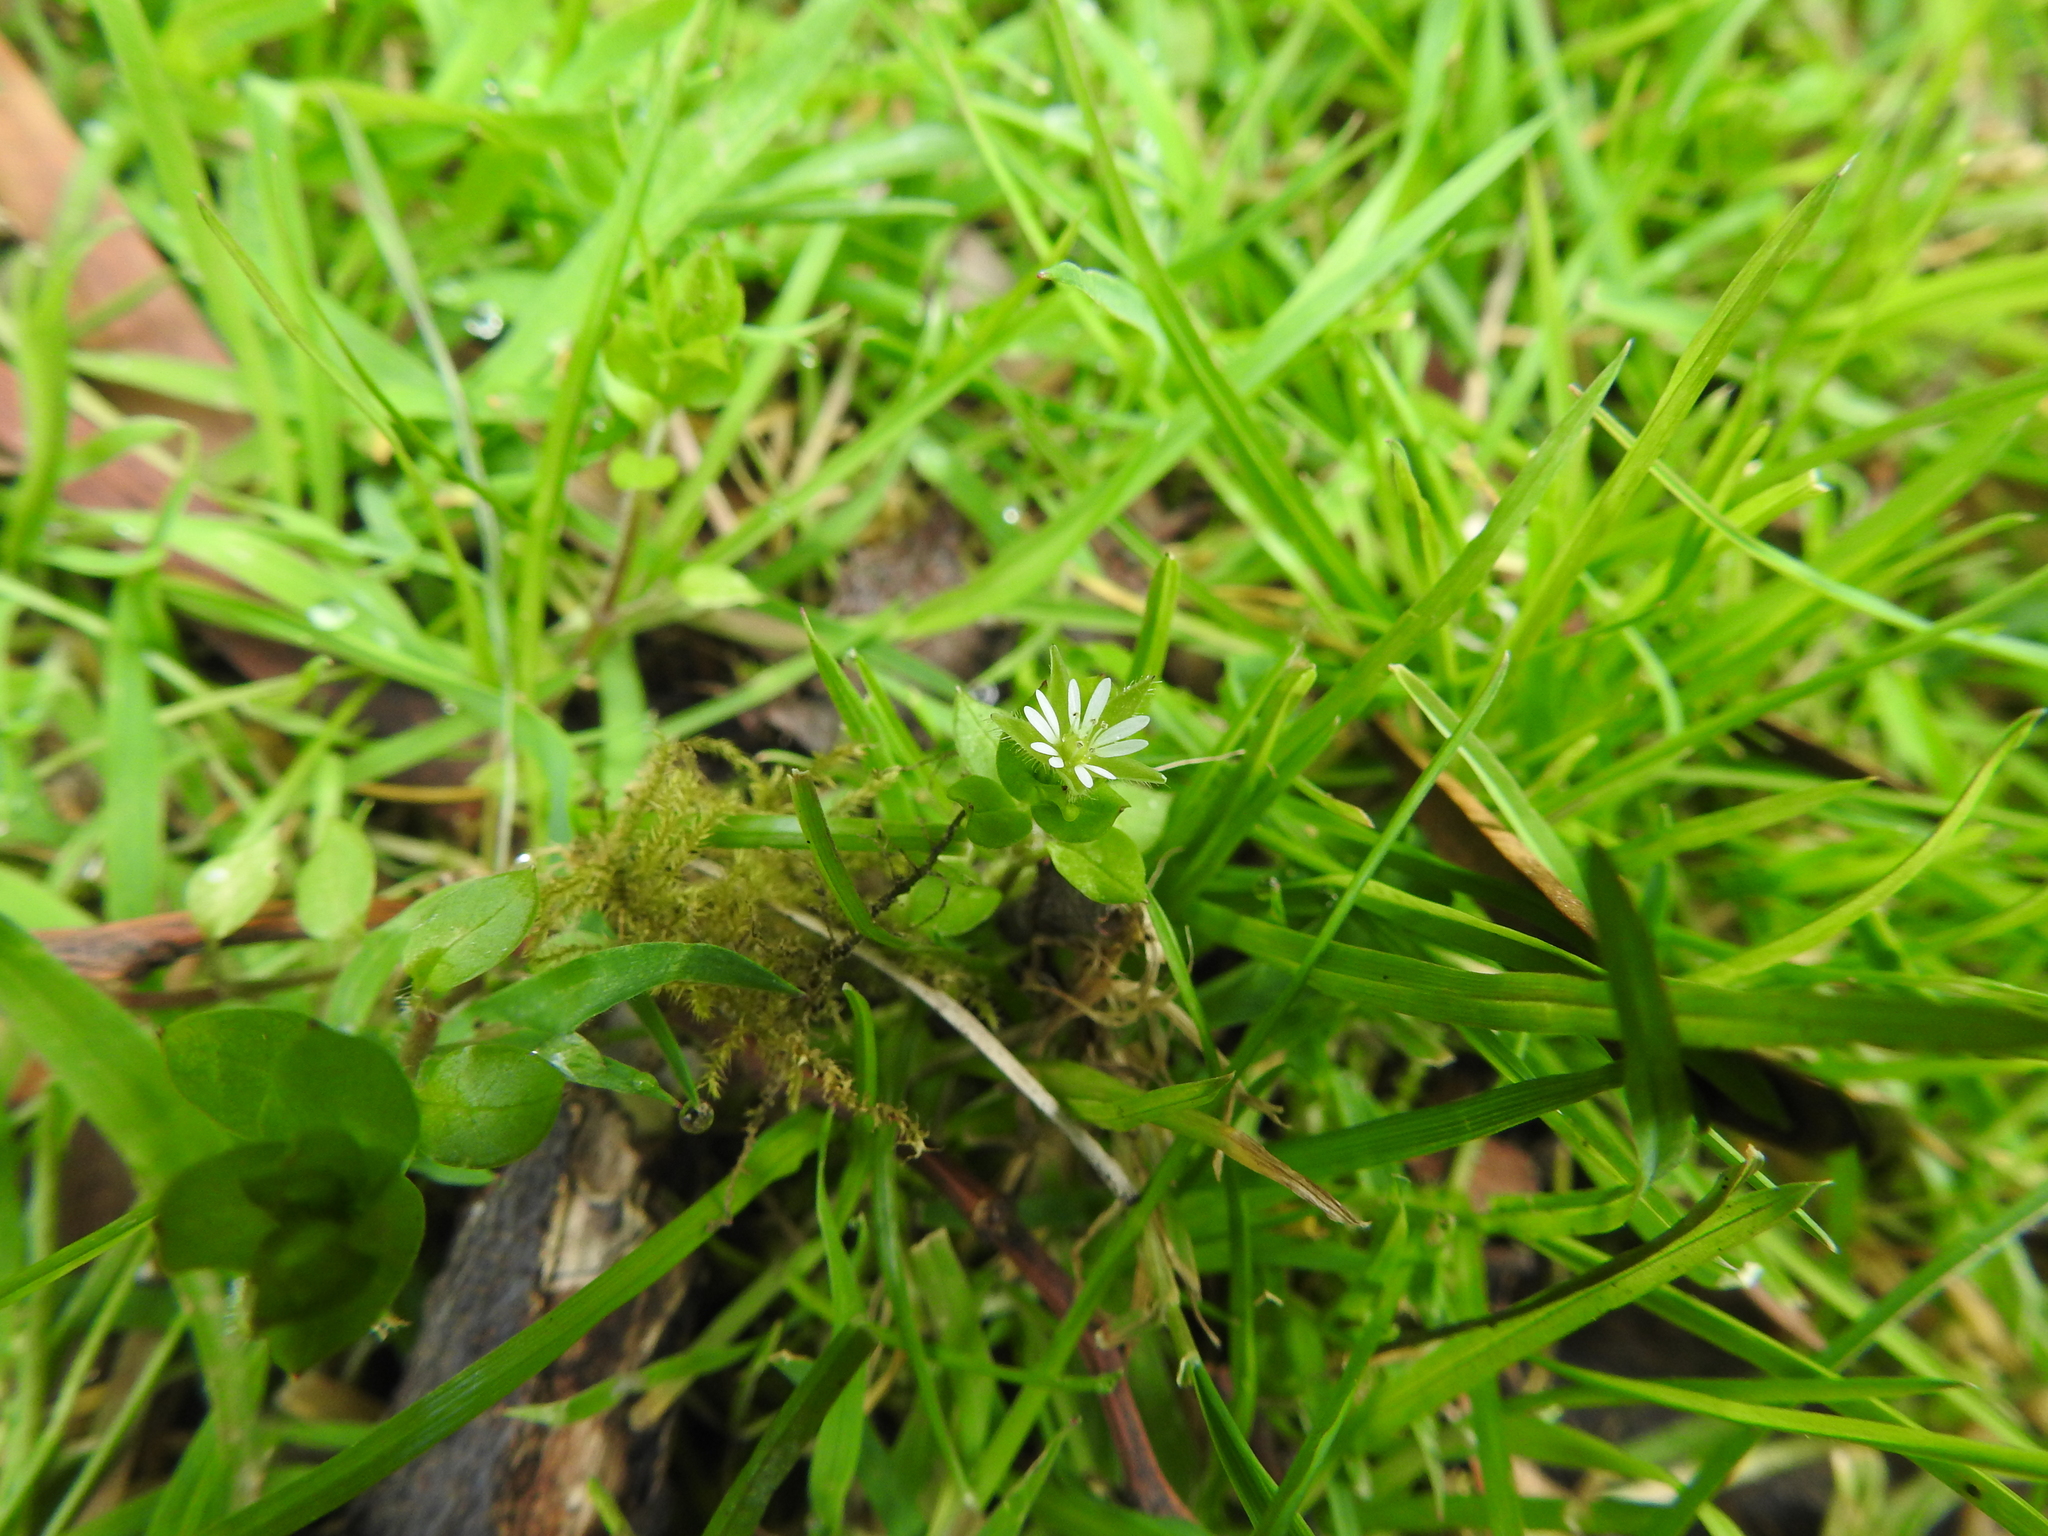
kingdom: Plantae
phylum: Tracheophyta
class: Magnoliopsida
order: Caryophyllales
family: Caryophyllaceae
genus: Stellaria
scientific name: Stellaria media
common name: Common chickweed
